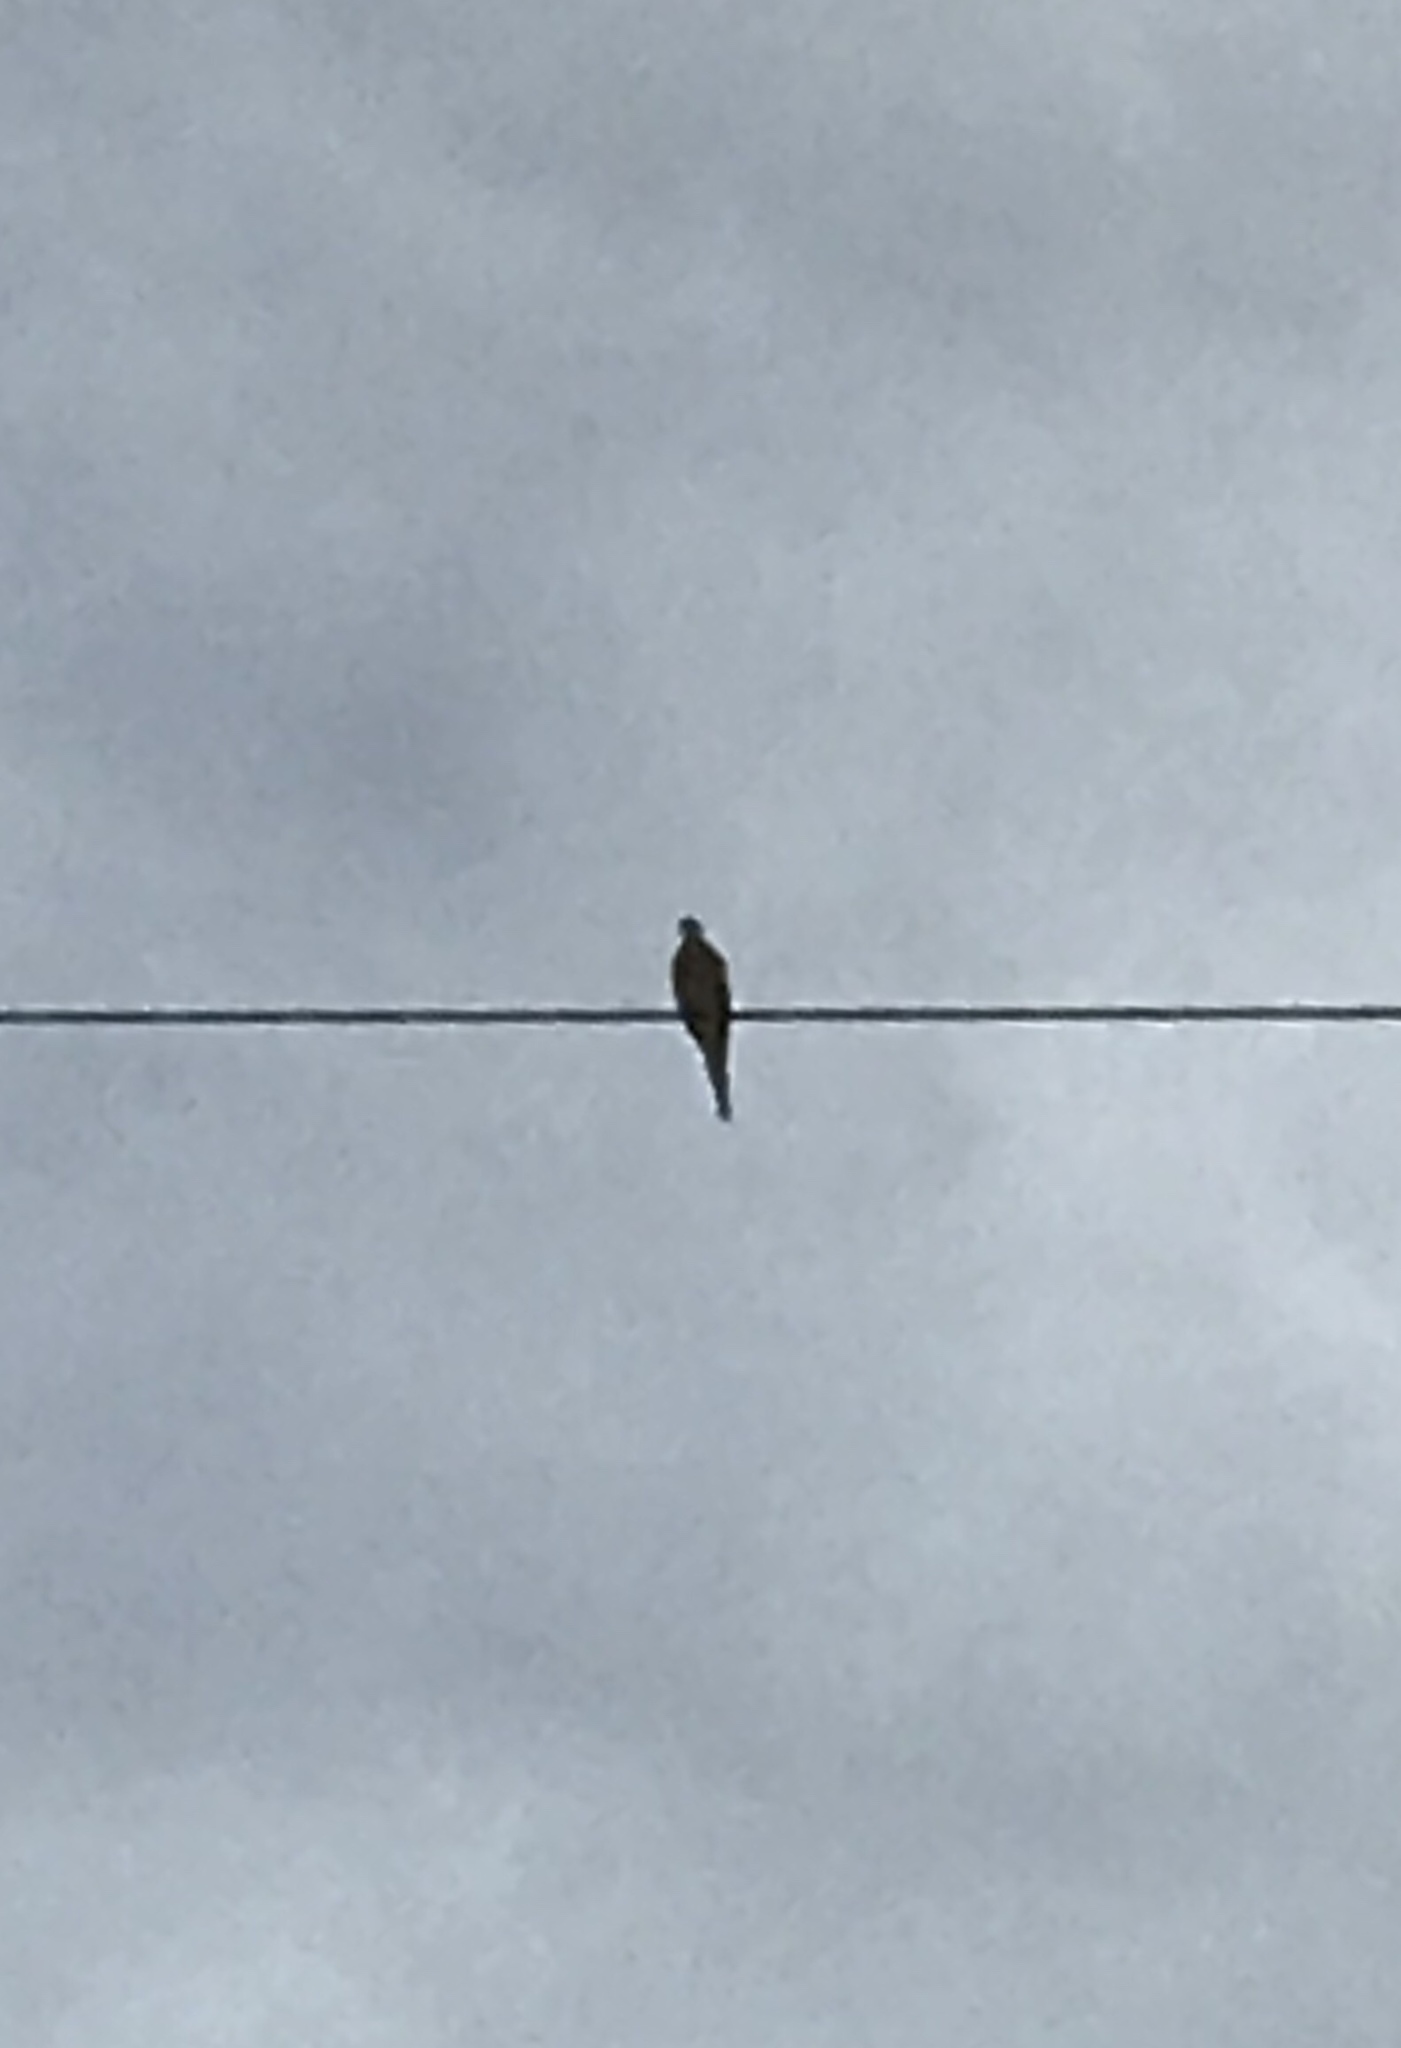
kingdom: Animalia
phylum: Chordata
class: Aves
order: Columbiformes
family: Columbidae
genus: Zenaida
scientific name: Zenaida macroura
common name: Mourning dove
